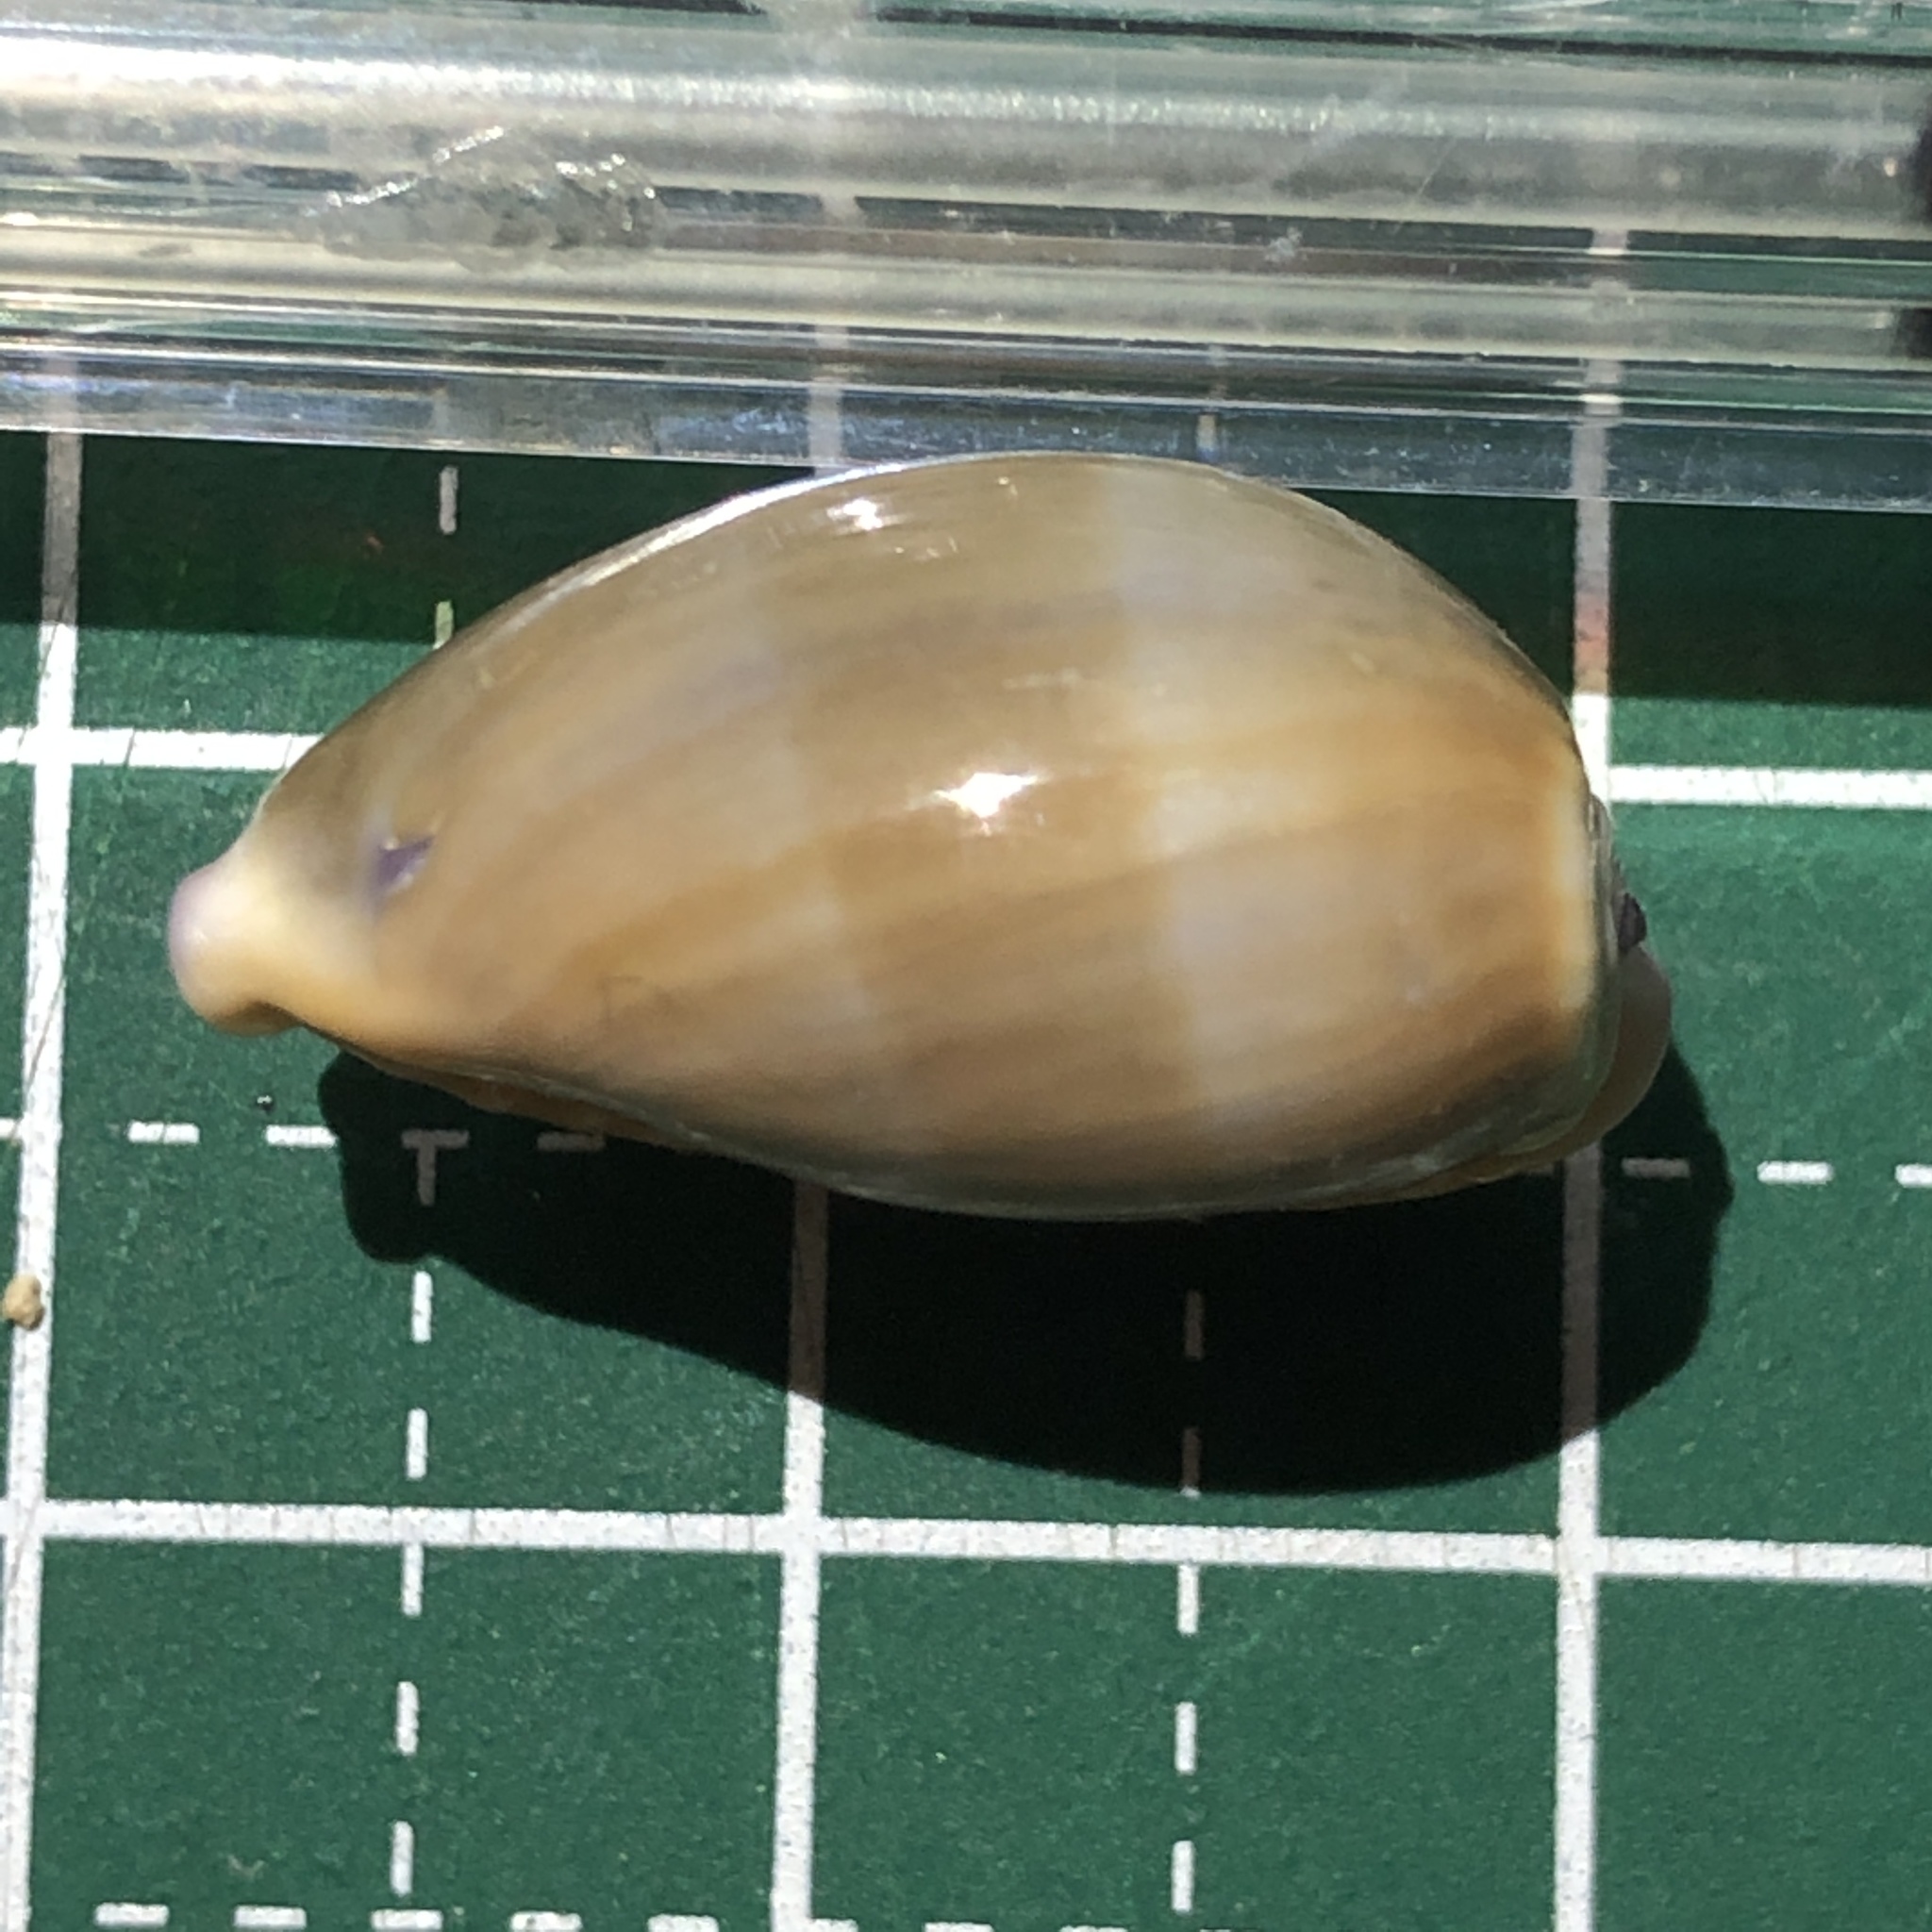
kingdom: Animalia
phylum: Mollusca
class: Gastropoda
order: Littorinimorpha
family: Cypraeidae
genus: Naria
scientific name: Naria helvola
